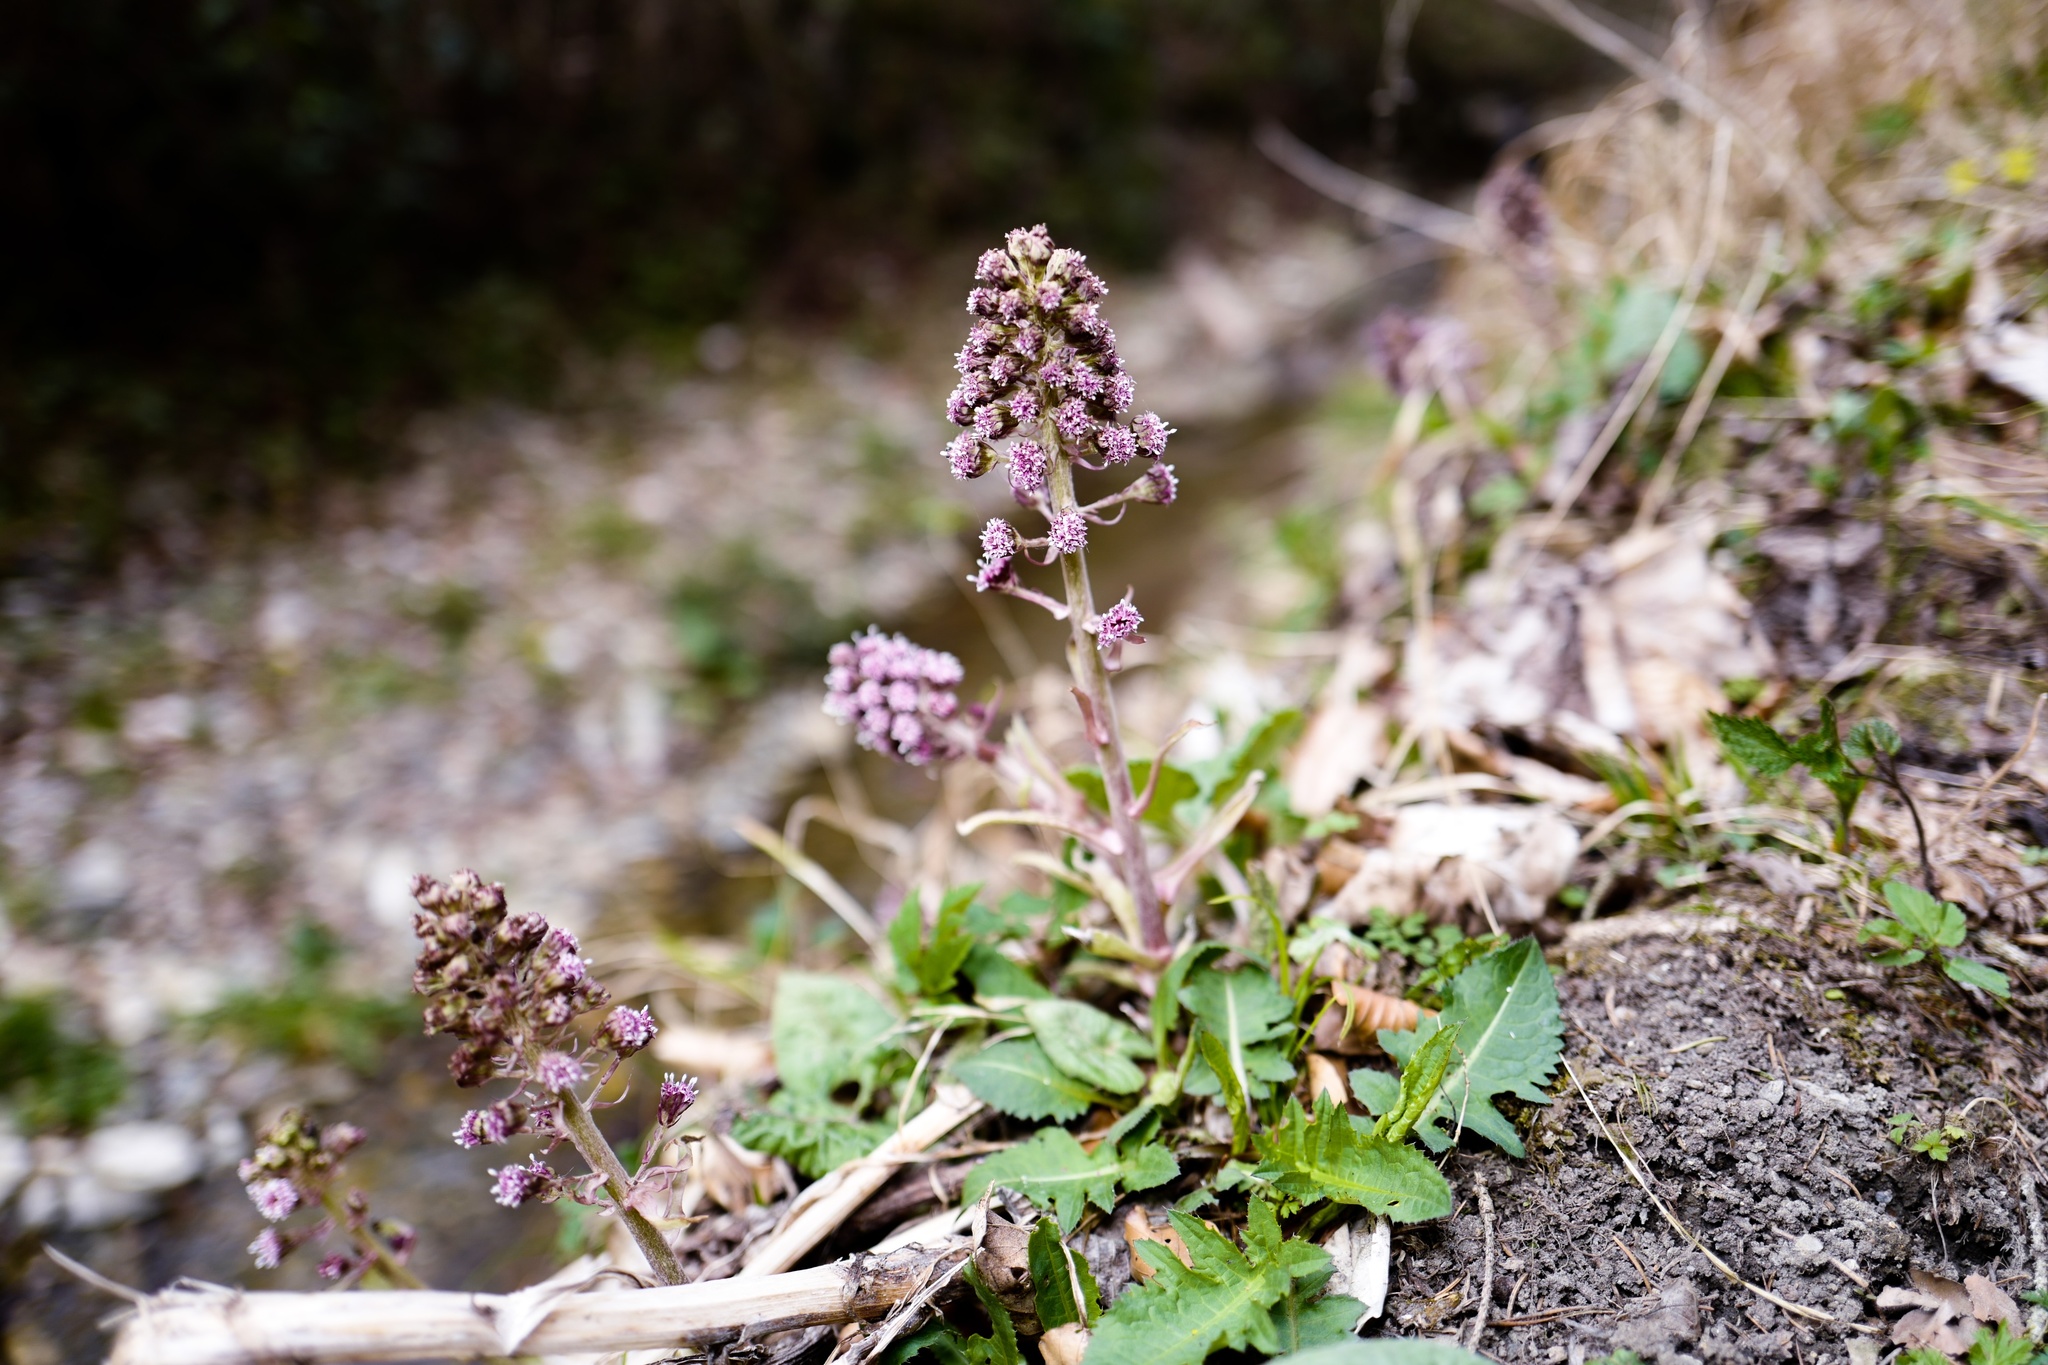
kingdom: Plantae
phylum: Tracheophyta
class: Magnoliopsida
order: Asterales
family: Asteraceae
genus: Petasites
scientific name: Petasites hybridus
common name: Butterbur
